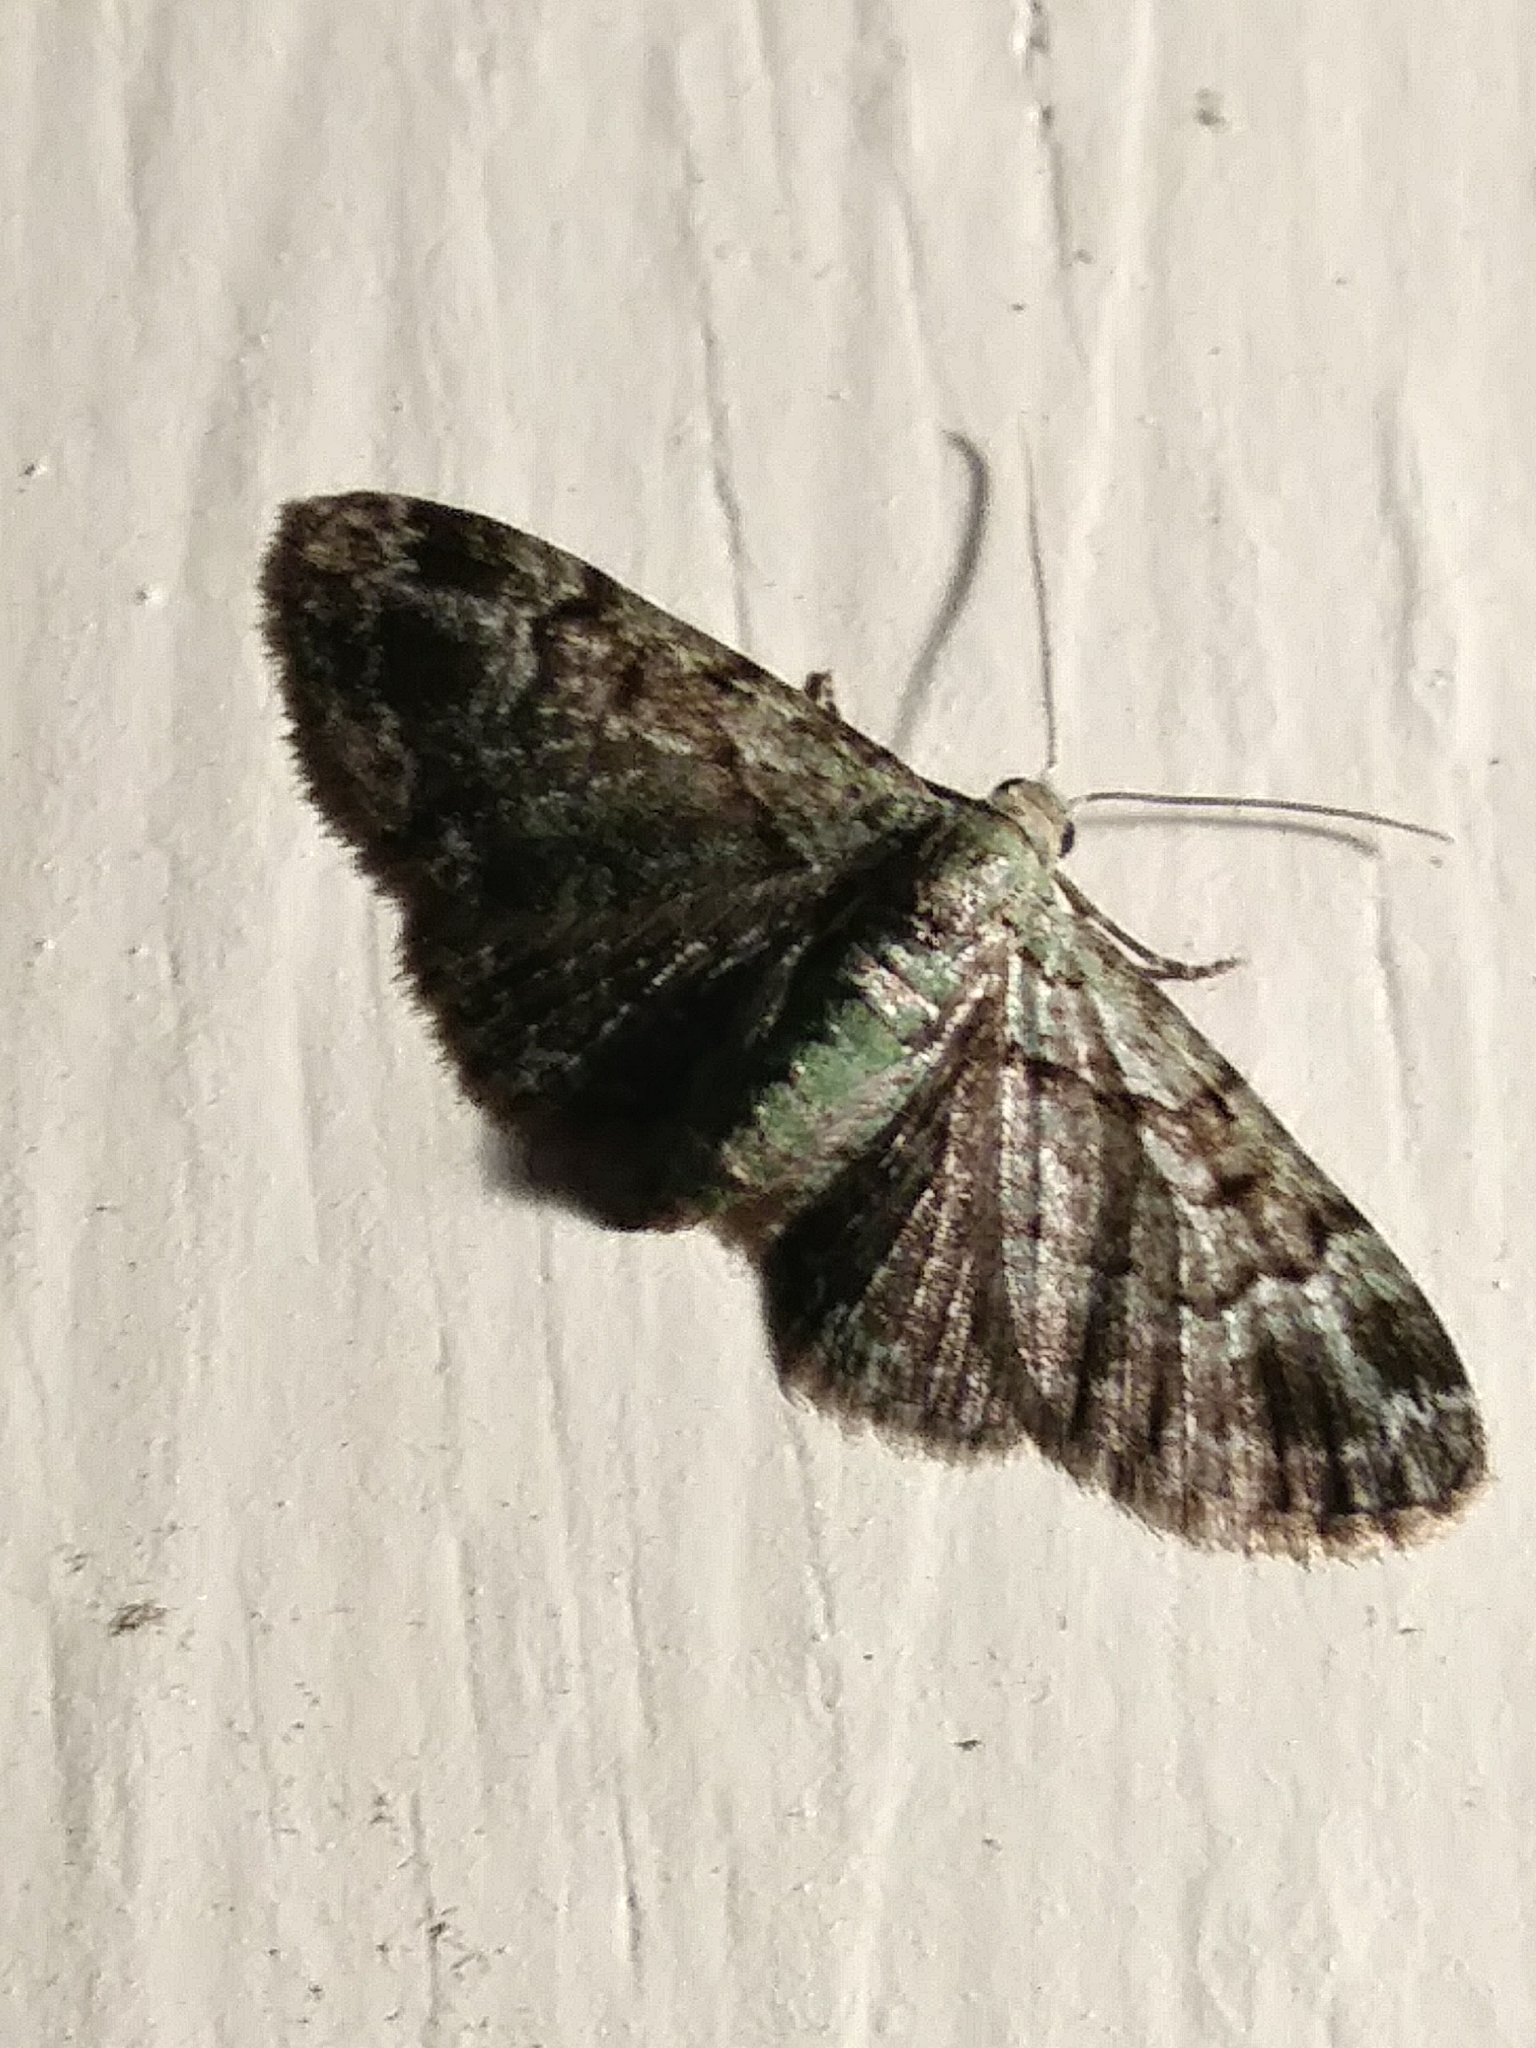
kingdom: Animalia
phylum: Arthropoda
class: Insecta
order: Lepidoptera
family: Geometridae
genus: Pasiphila
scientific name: Pasiphila rectangulata
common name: Green pug
